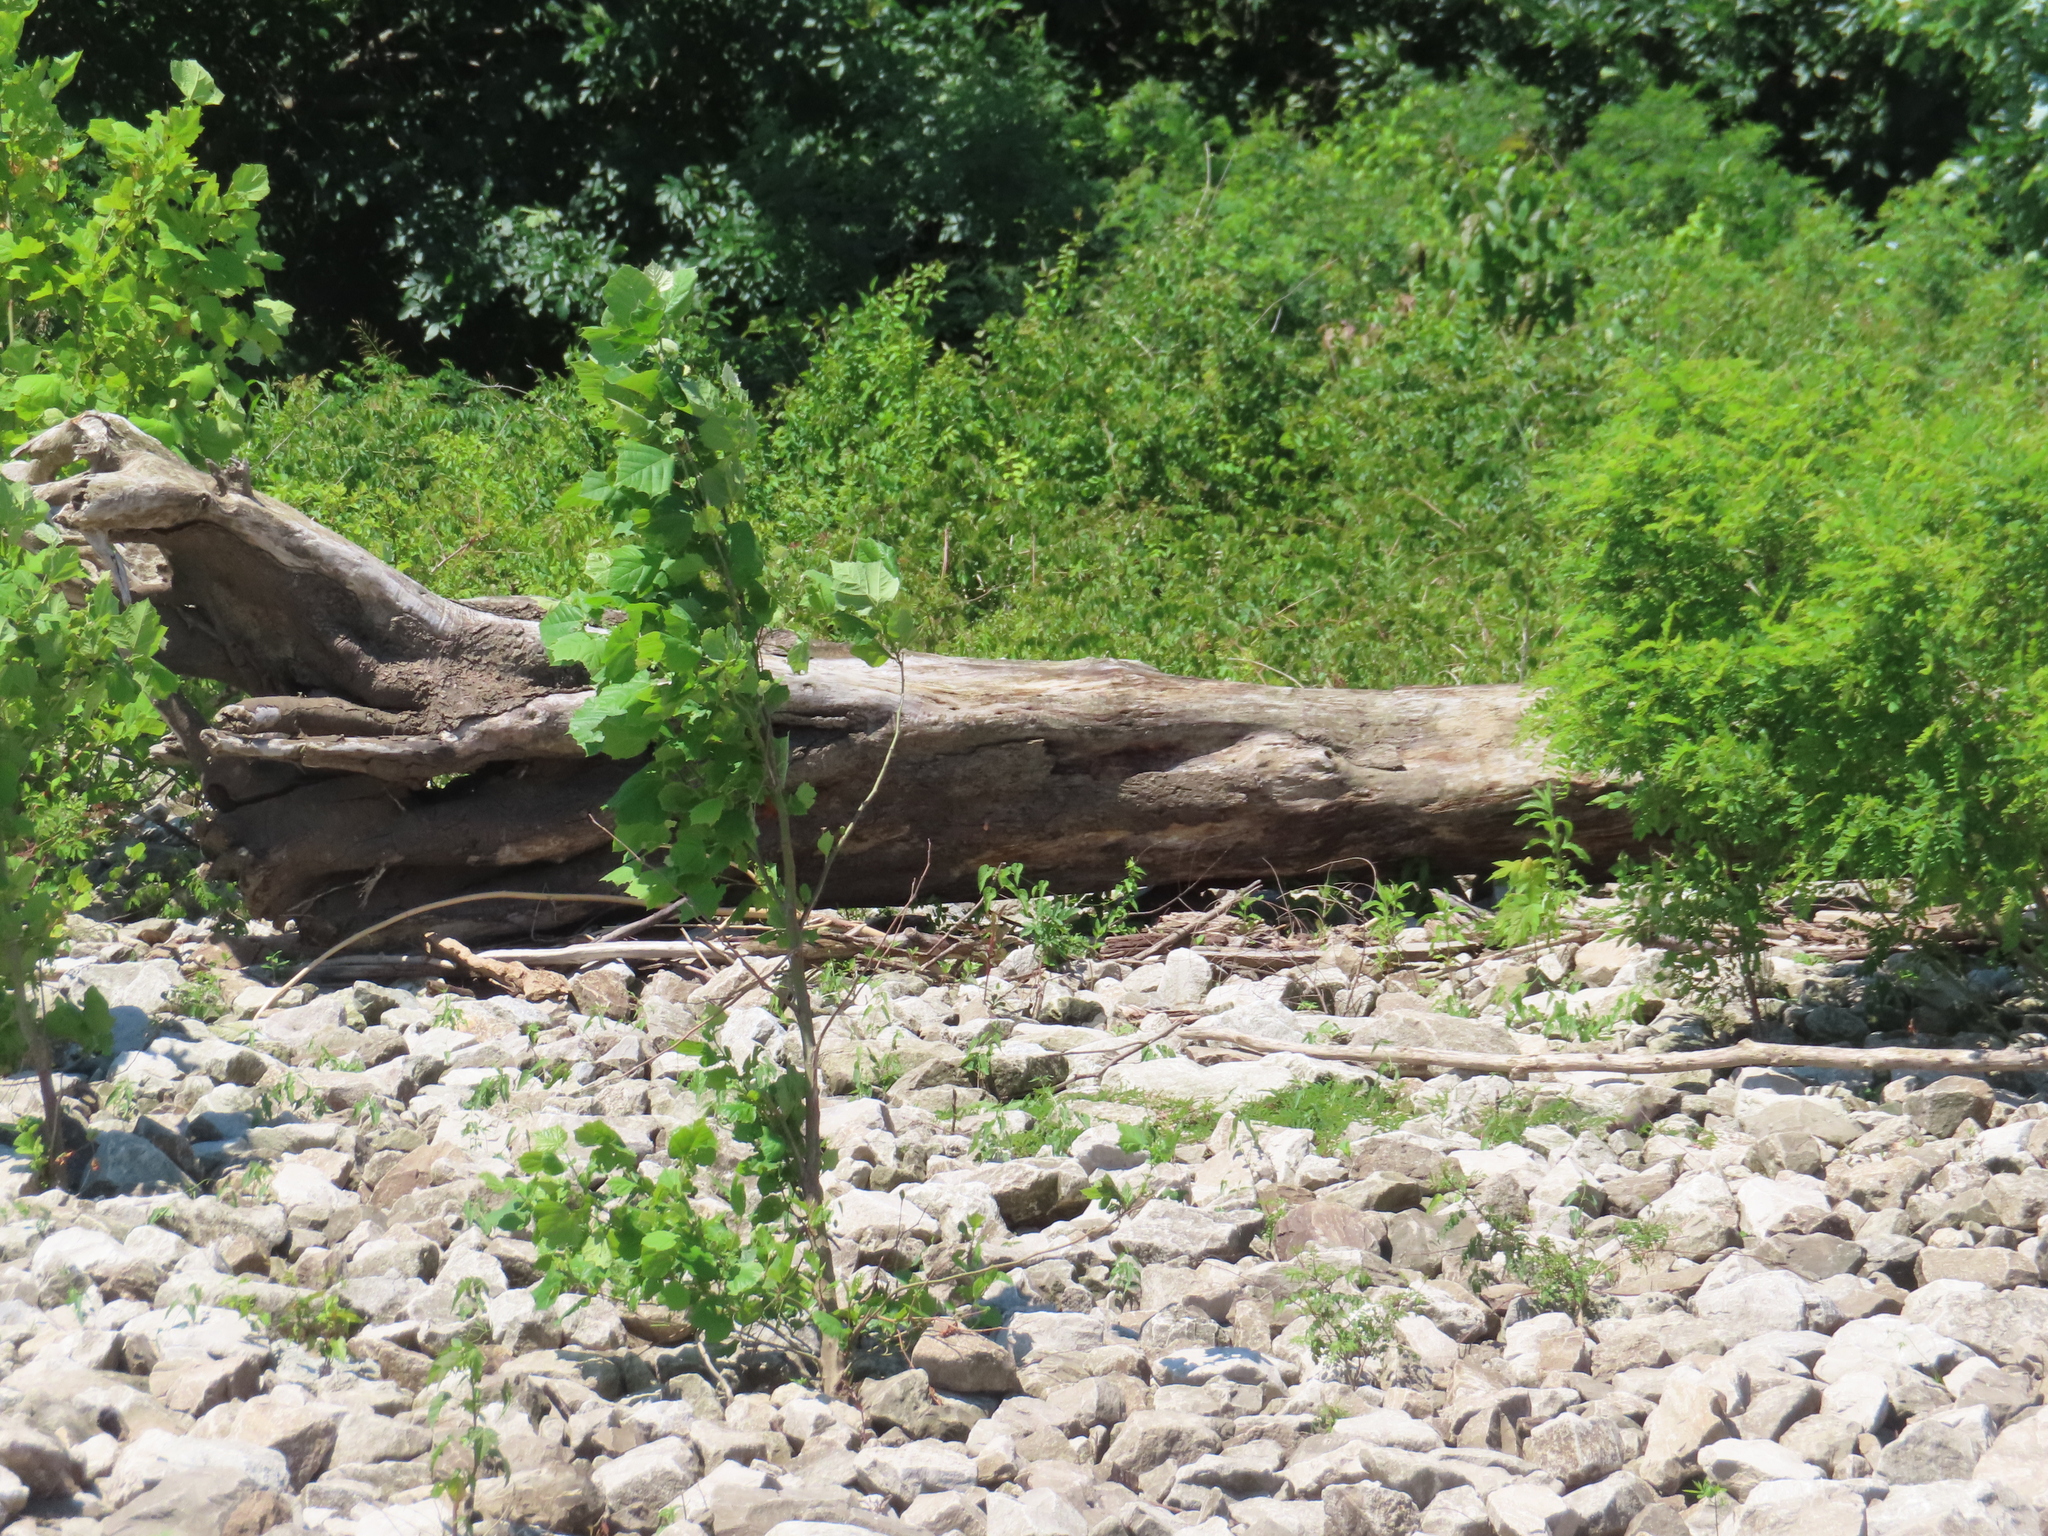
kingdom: Plantae
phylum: Tracheophyta
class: Magnoliopsida
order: Proteales
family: Platanaceae
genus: Platanus
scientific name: Platanus occidentalis
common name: American sycamore
